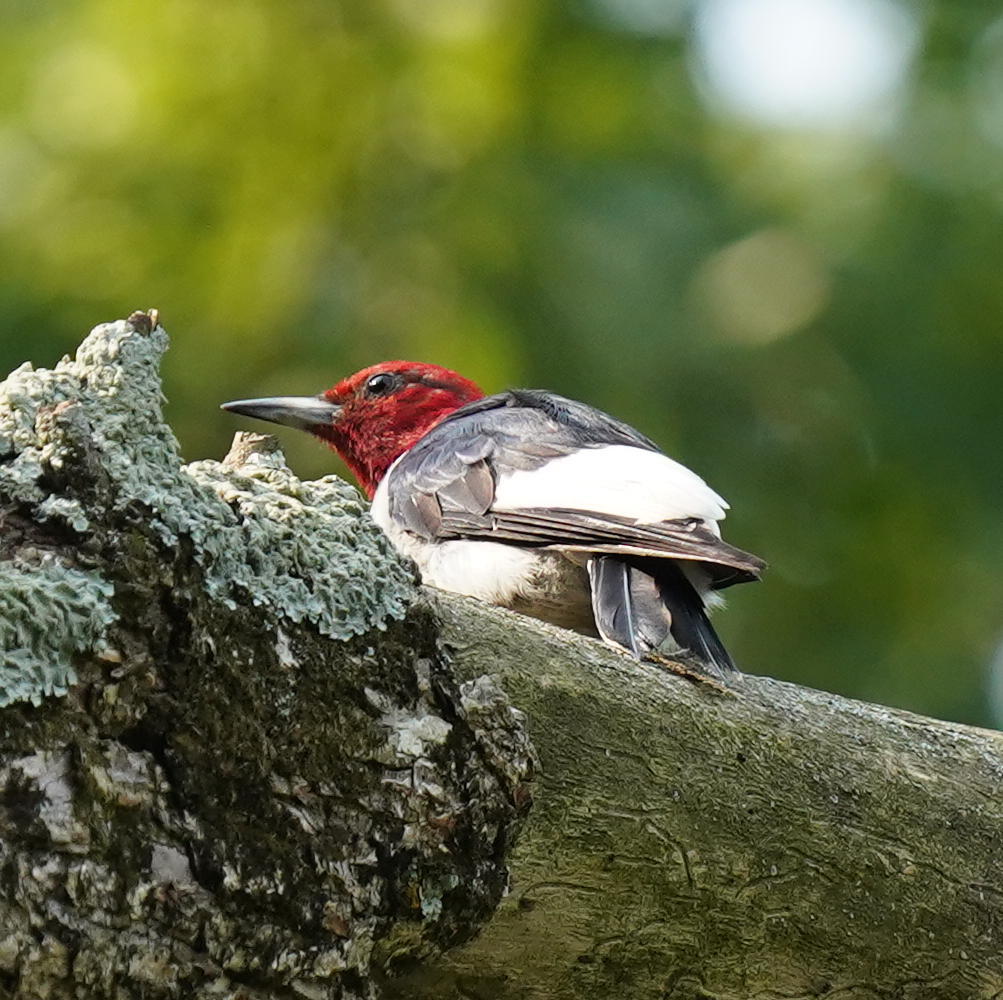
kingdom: Animalia
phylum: Chordata
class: Aves
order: Piciformes
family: Picidae
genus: Melanerpes
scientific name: Melanerpes erythrocephalus
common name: Red-headed woodpecker
